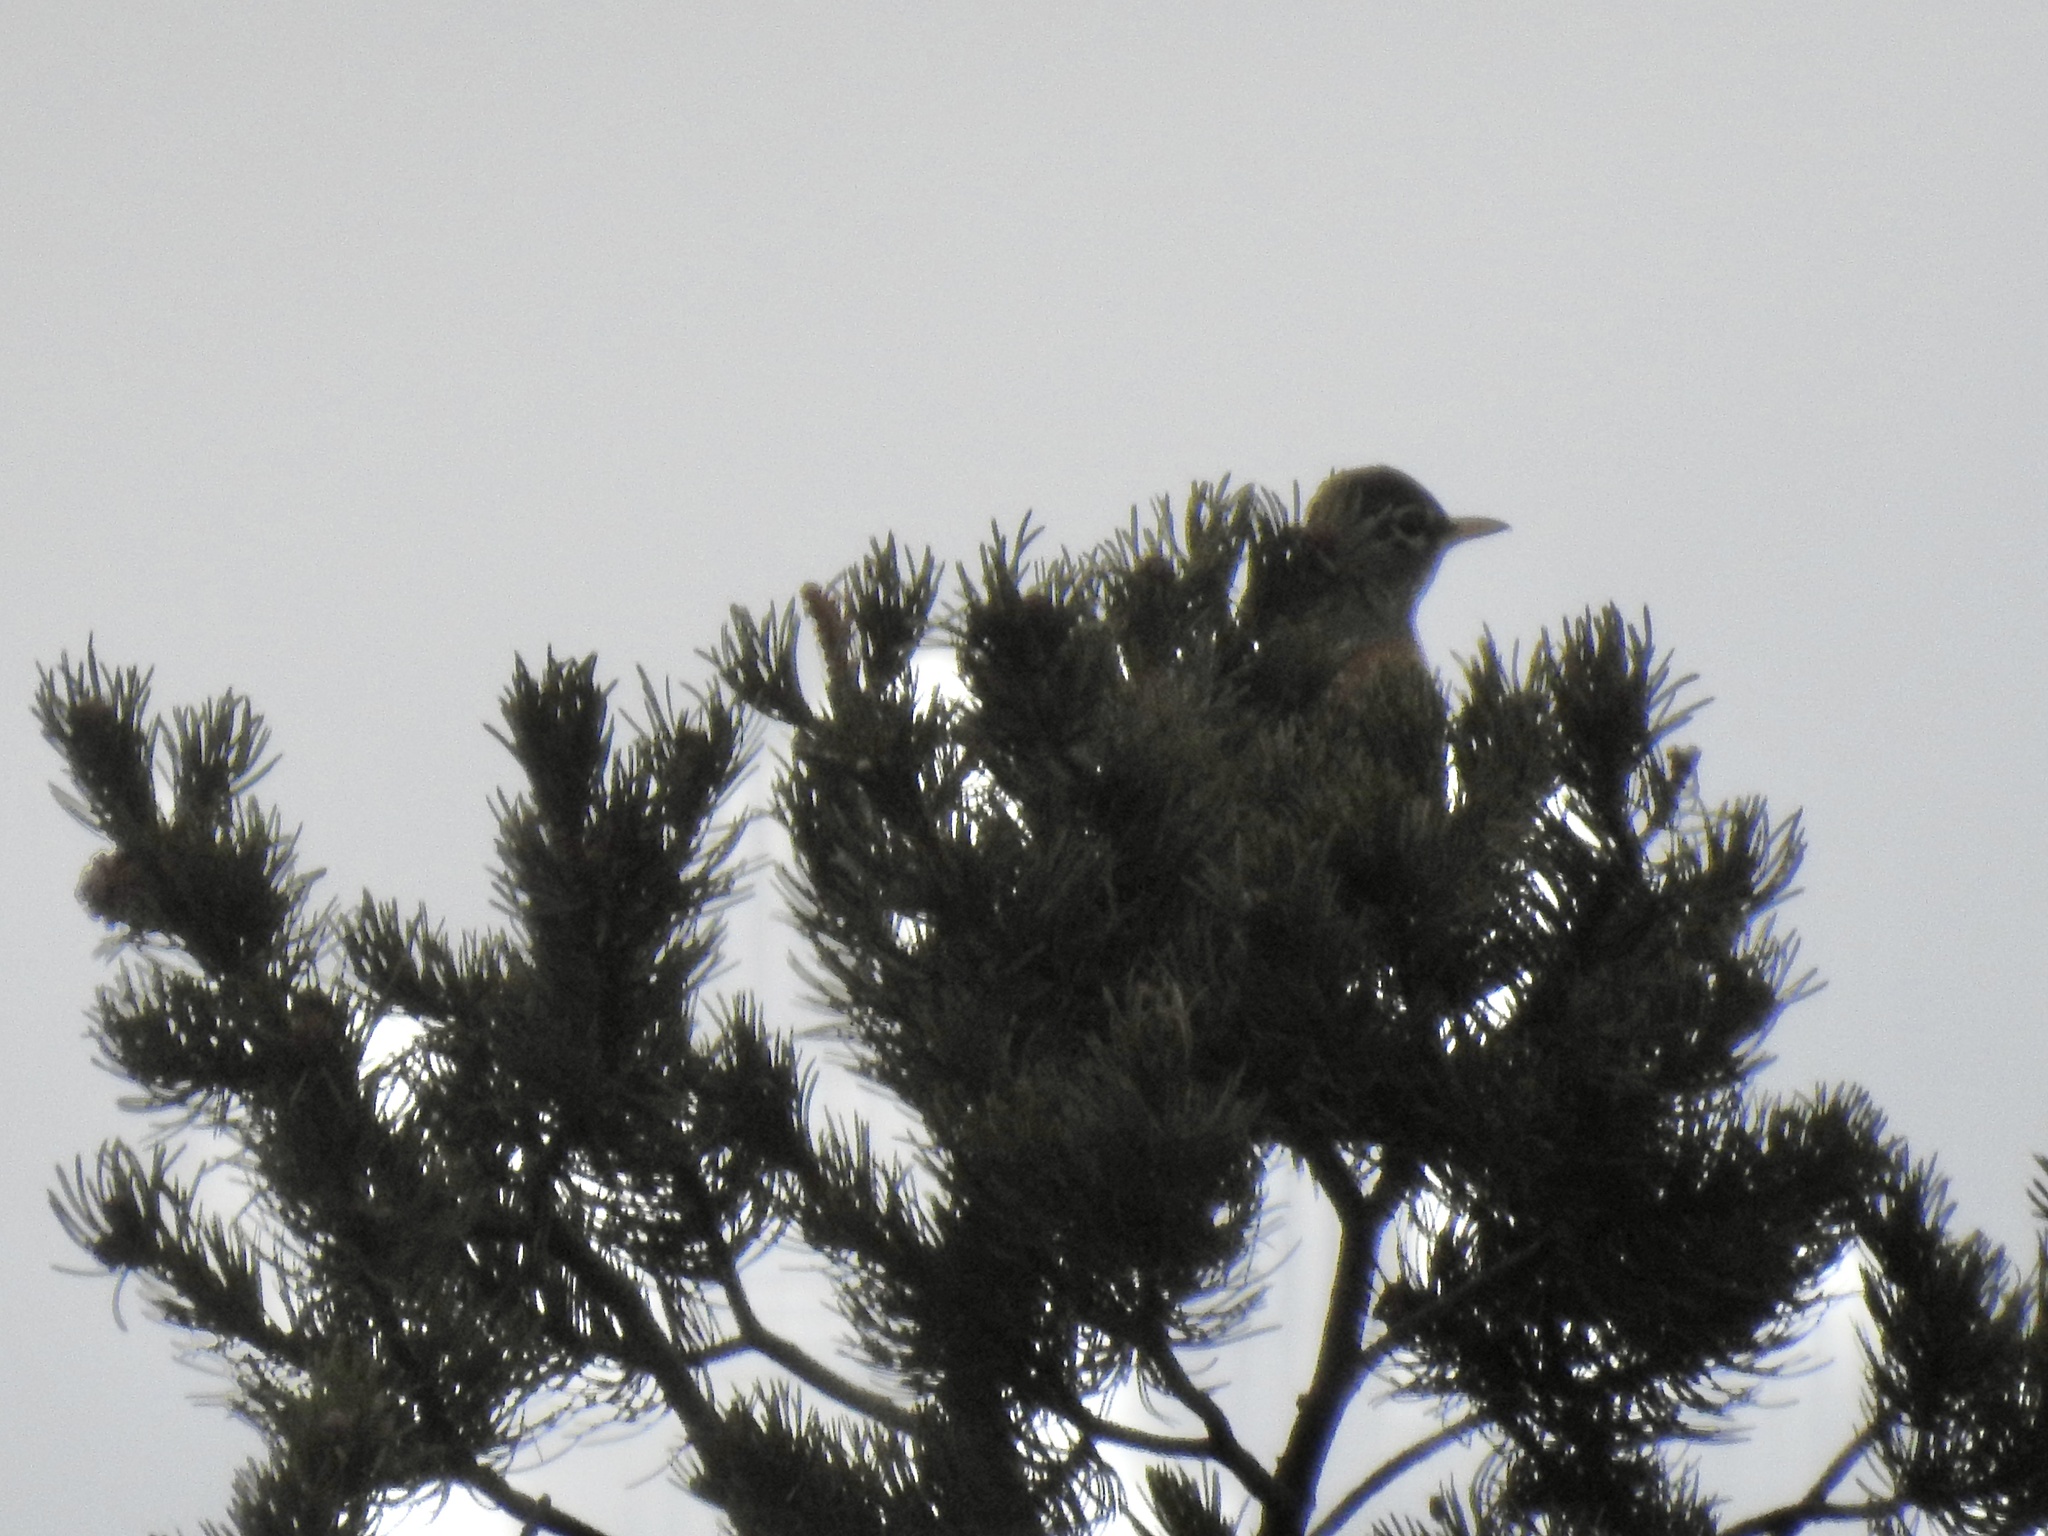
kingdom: Animalia
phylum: Chordata
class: Aves
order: Passeriformes
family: Turdidae
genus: Turdus
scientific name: Turdus migratorius
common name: American robin
